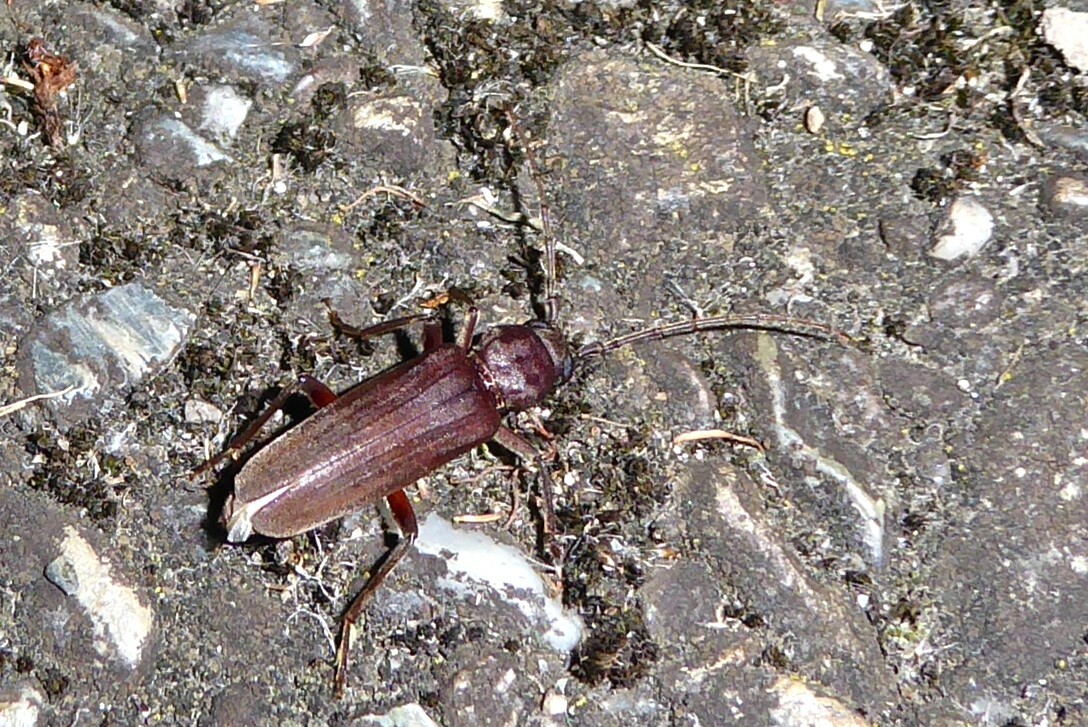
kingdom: Animalia
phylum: Arthropoda
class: Insecta
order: Coleoptera
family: Cerambycidae
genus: Arhopalus
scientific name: Arhopalus ferus
